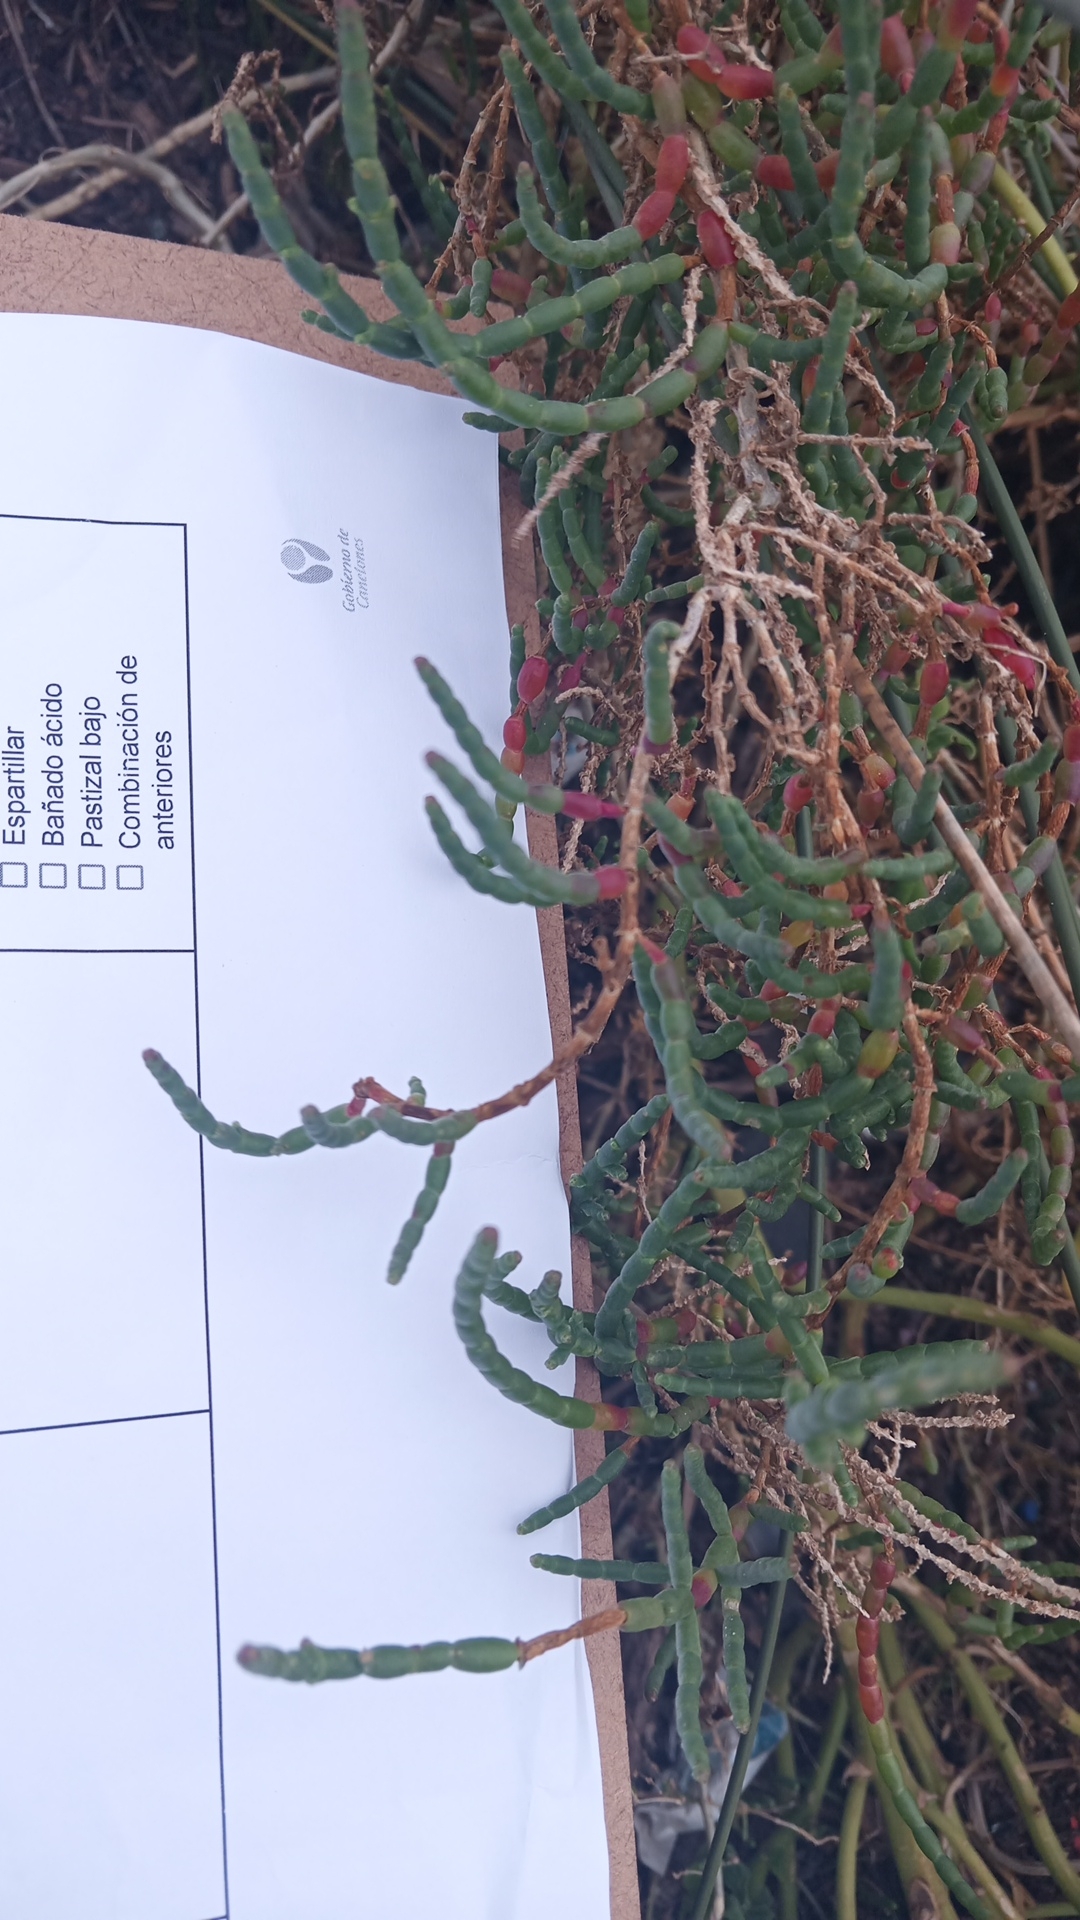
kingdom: Plantae
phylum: Tracheophyta
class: Magnoliopsida
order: Caryophyllales
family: Amaranthaceae
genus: Salicornia
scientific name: Salicornia ambigua
